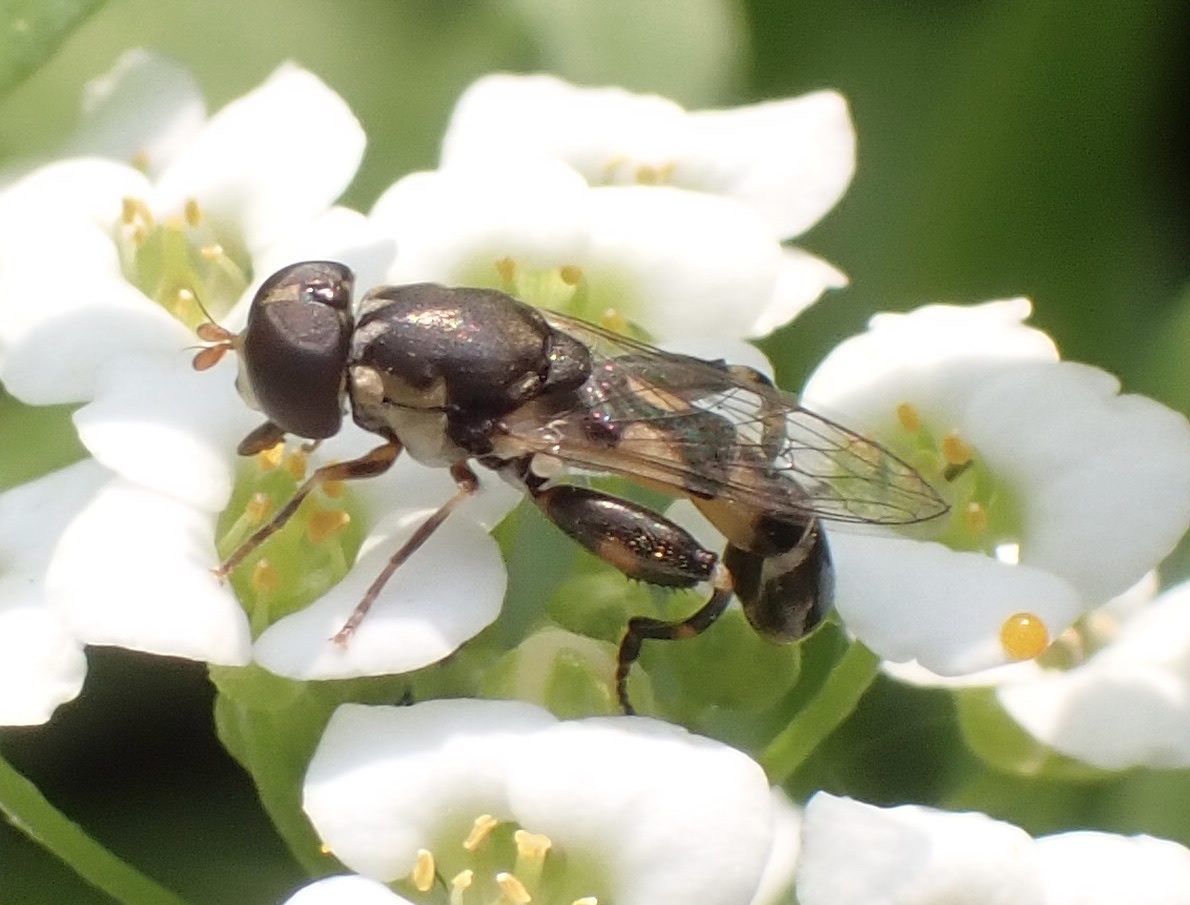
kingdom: Animalia
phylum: Arthropoda
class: Insecta
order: Diptera
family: Syrphidae
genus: Syritta
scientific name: Syritta pipiens
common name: Hover fly
